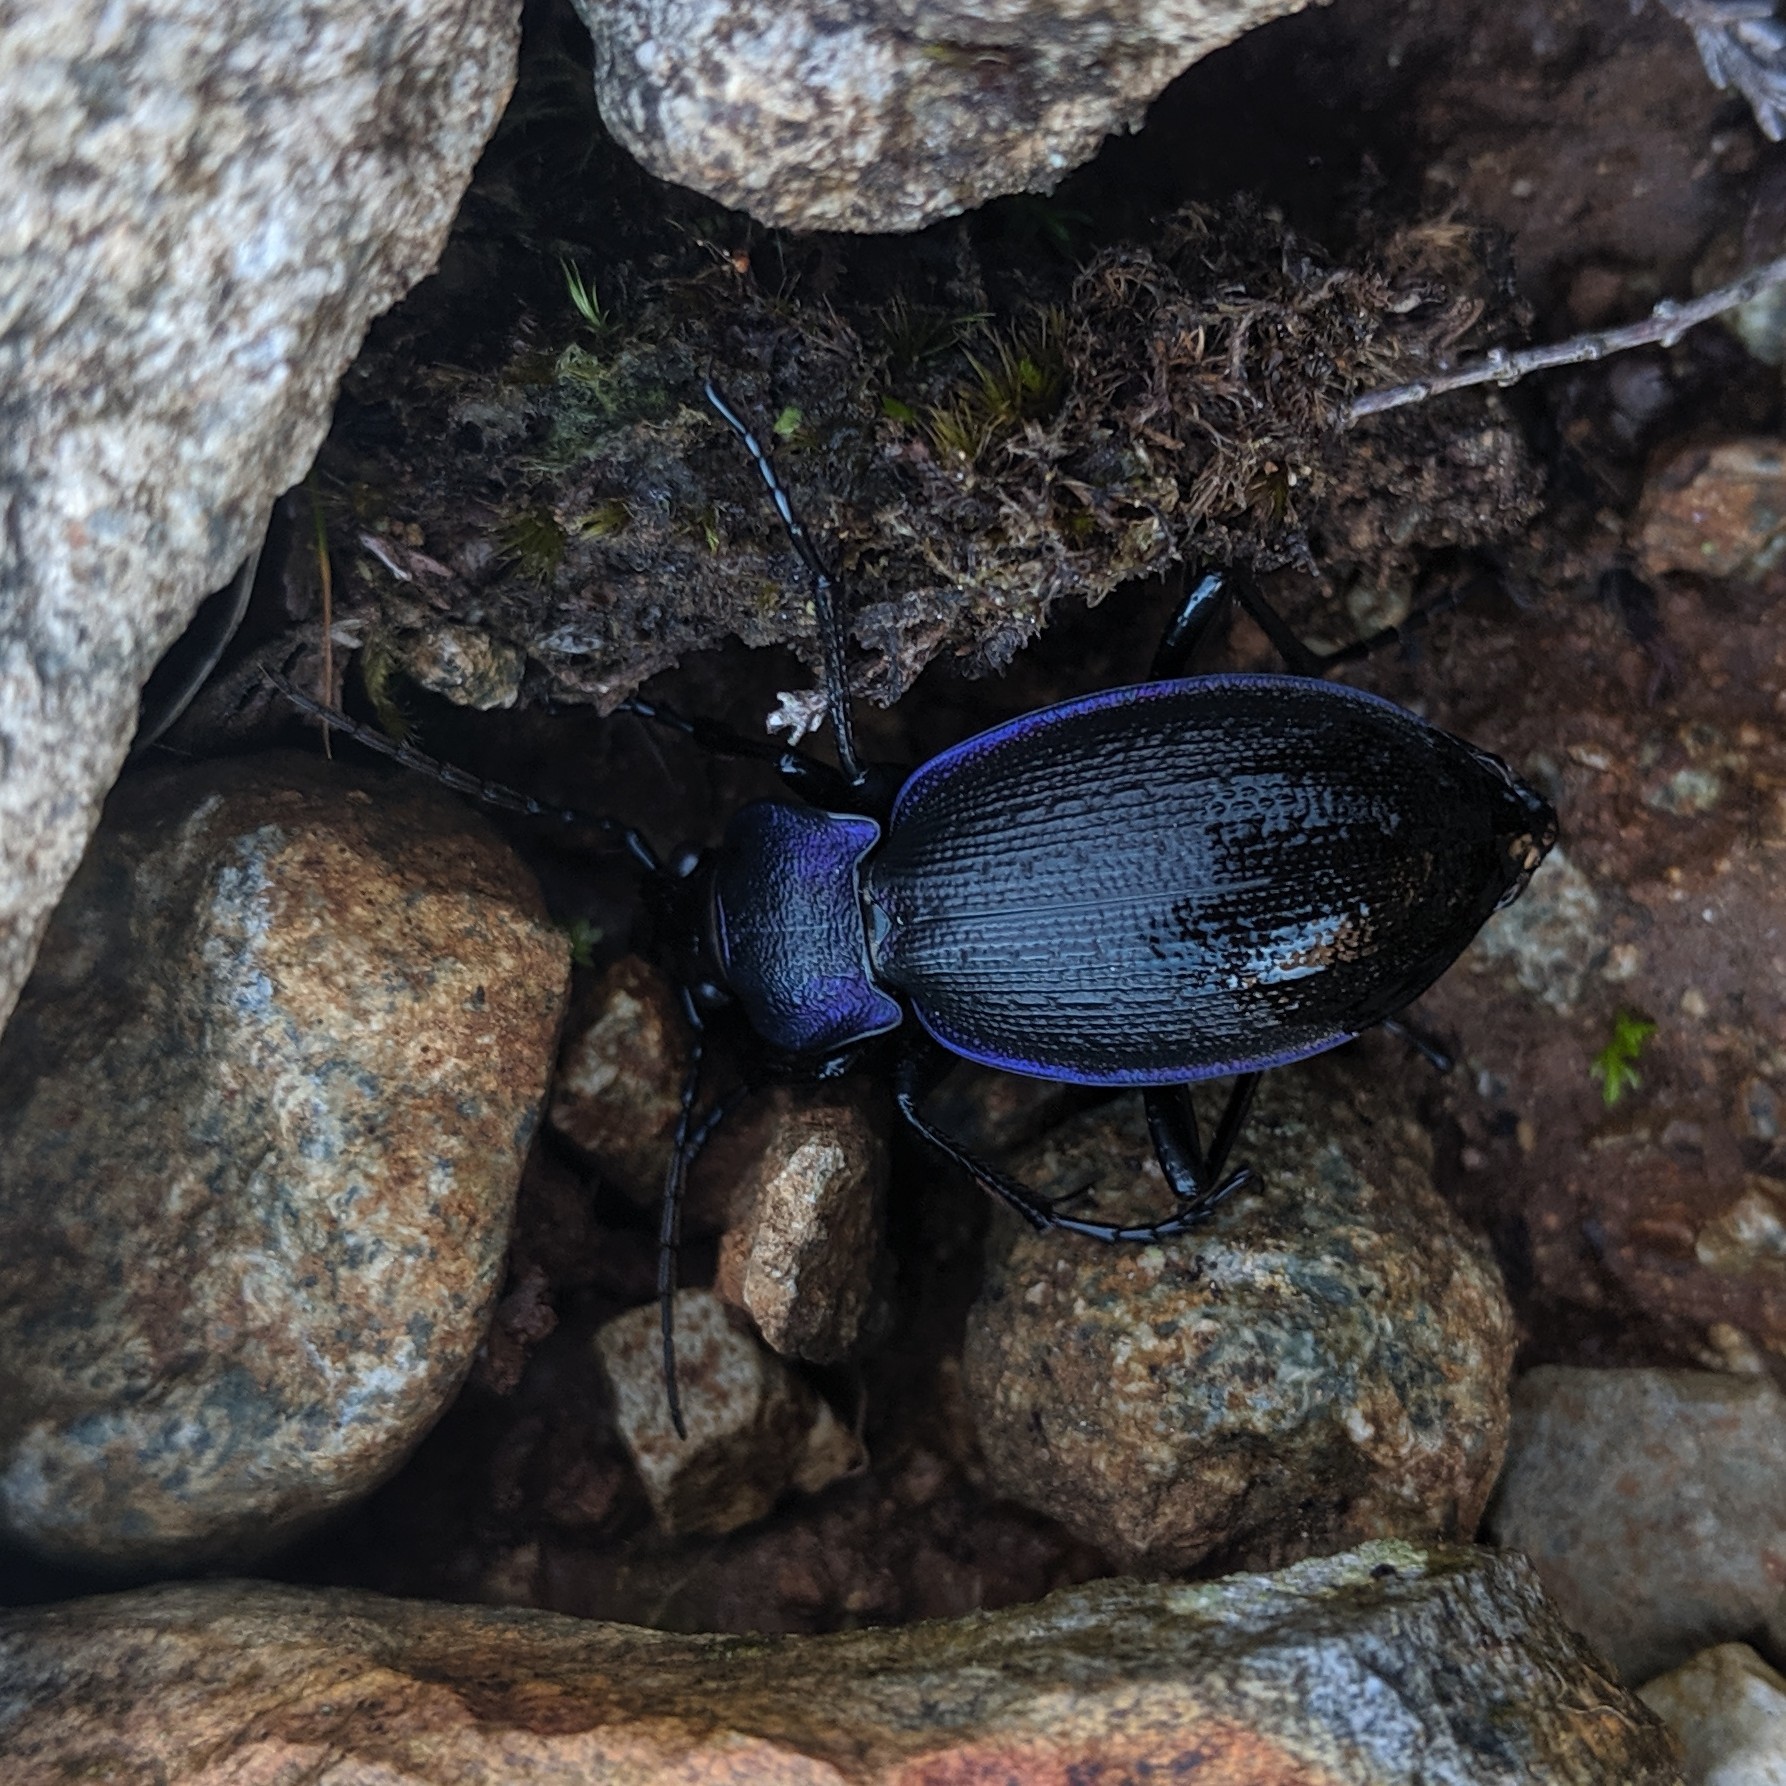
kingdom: Animalia
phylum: Arthropoda
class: Insecta
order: Coleoptera
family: Carabidae
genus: Carabus
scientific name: Carabus problematicus
